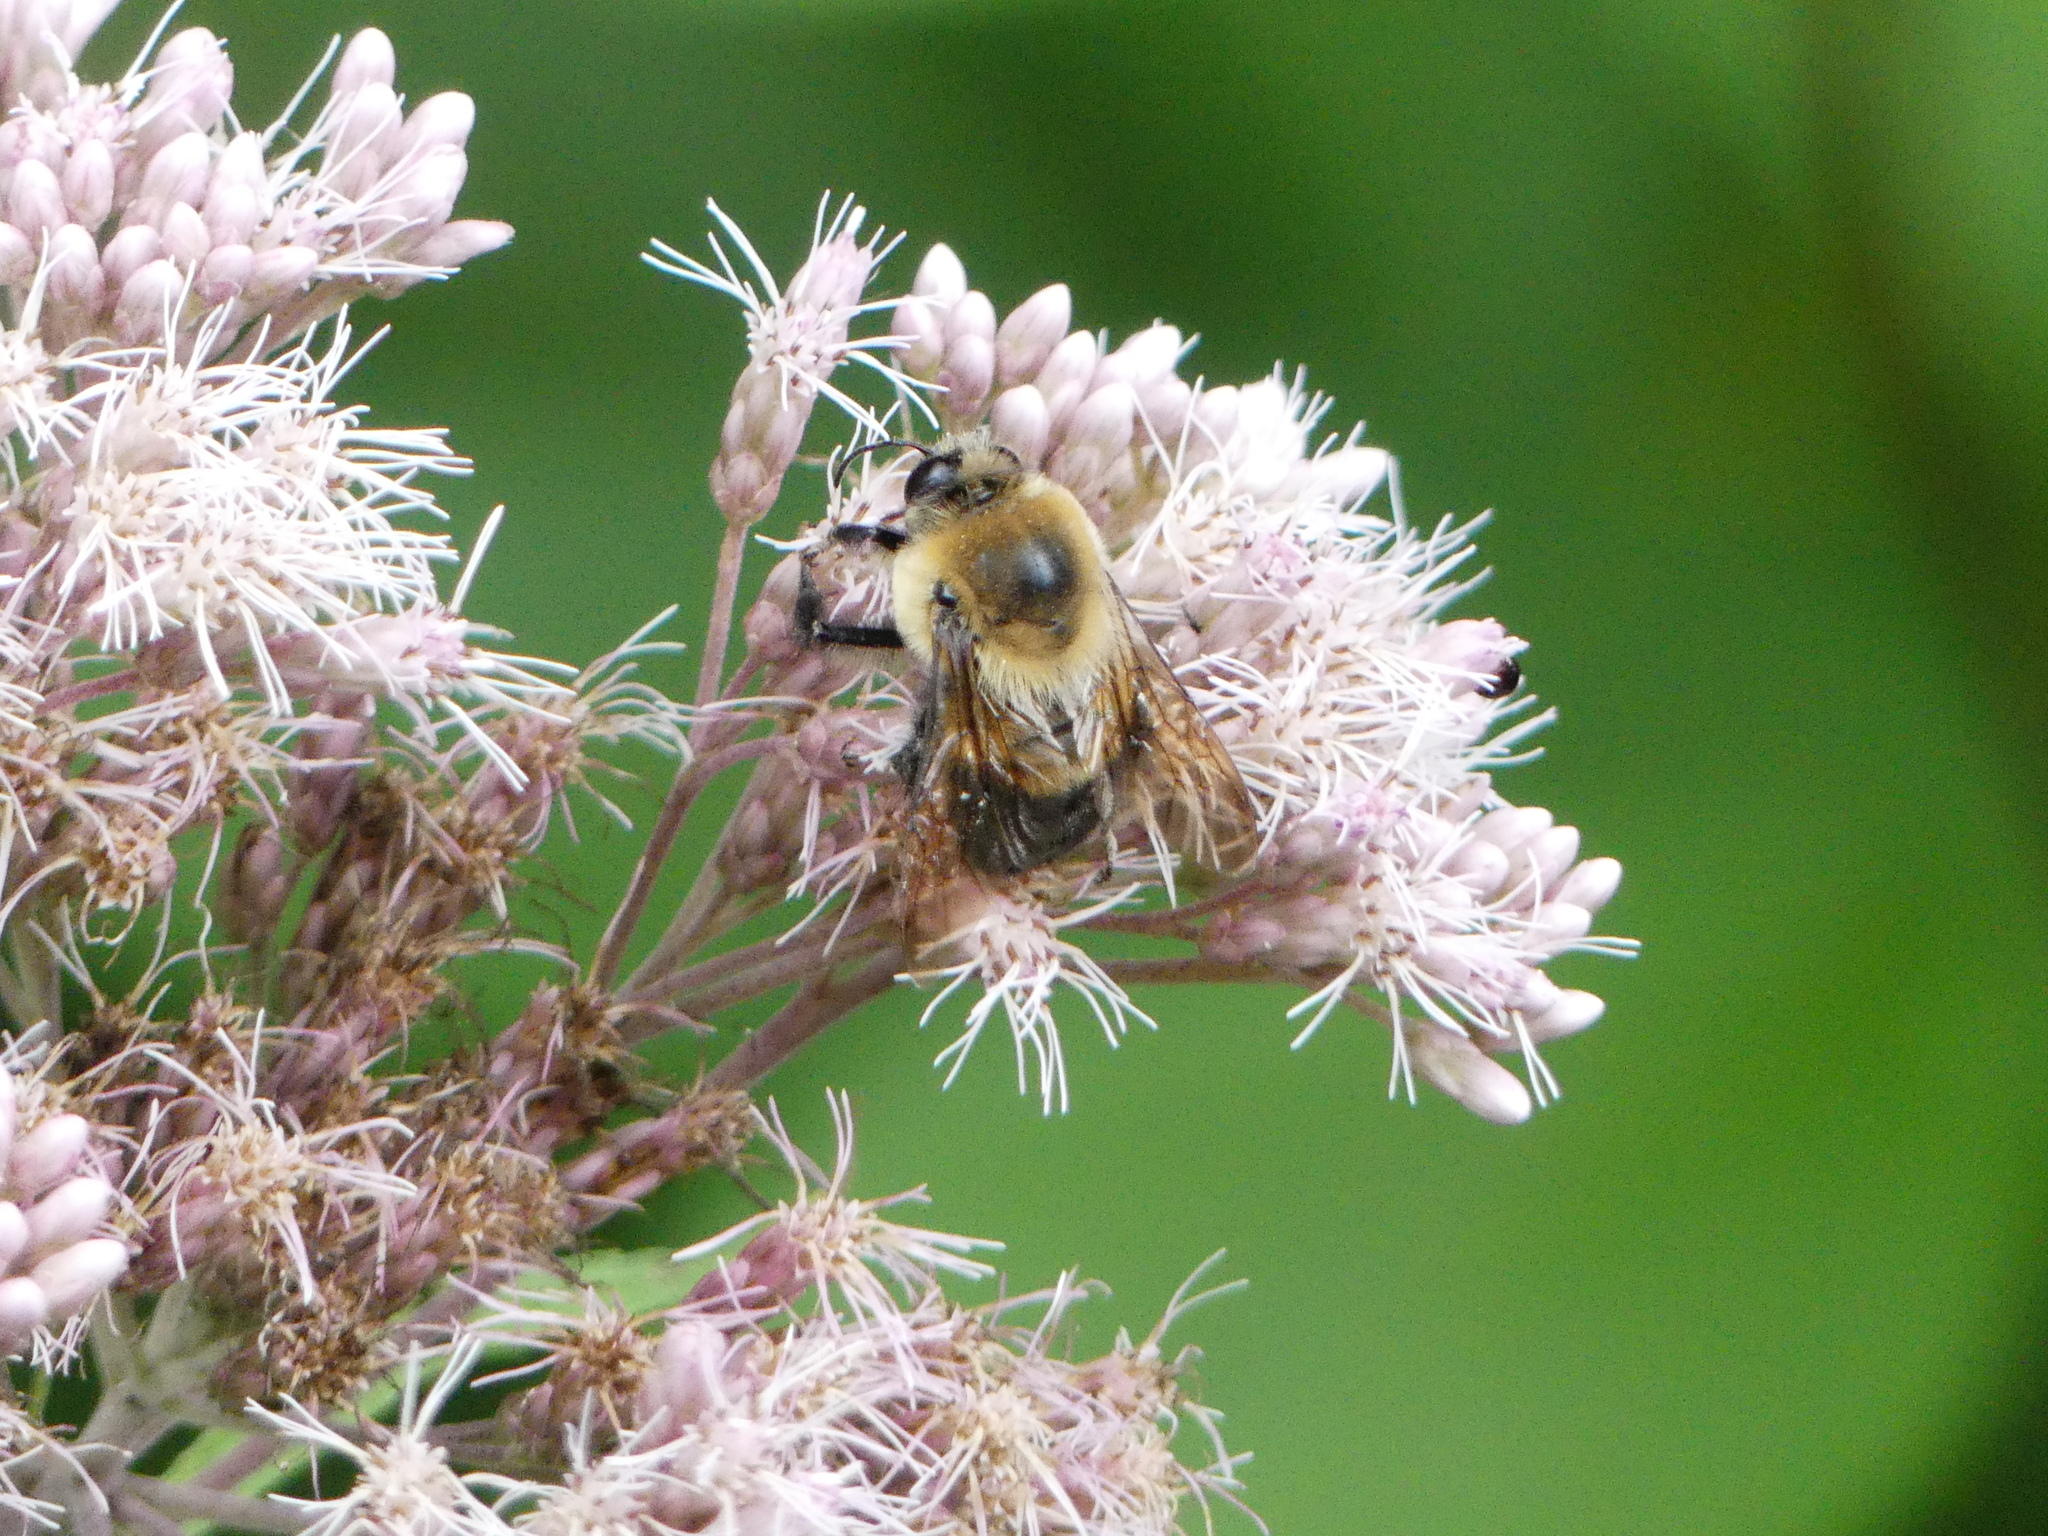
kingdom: Animalia
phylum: Arthropoda
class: Insecta
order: Hymenoptera
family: Apidae
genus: Bombus
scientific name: Bombus griseocollis
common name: Brown-belted bumble bee
